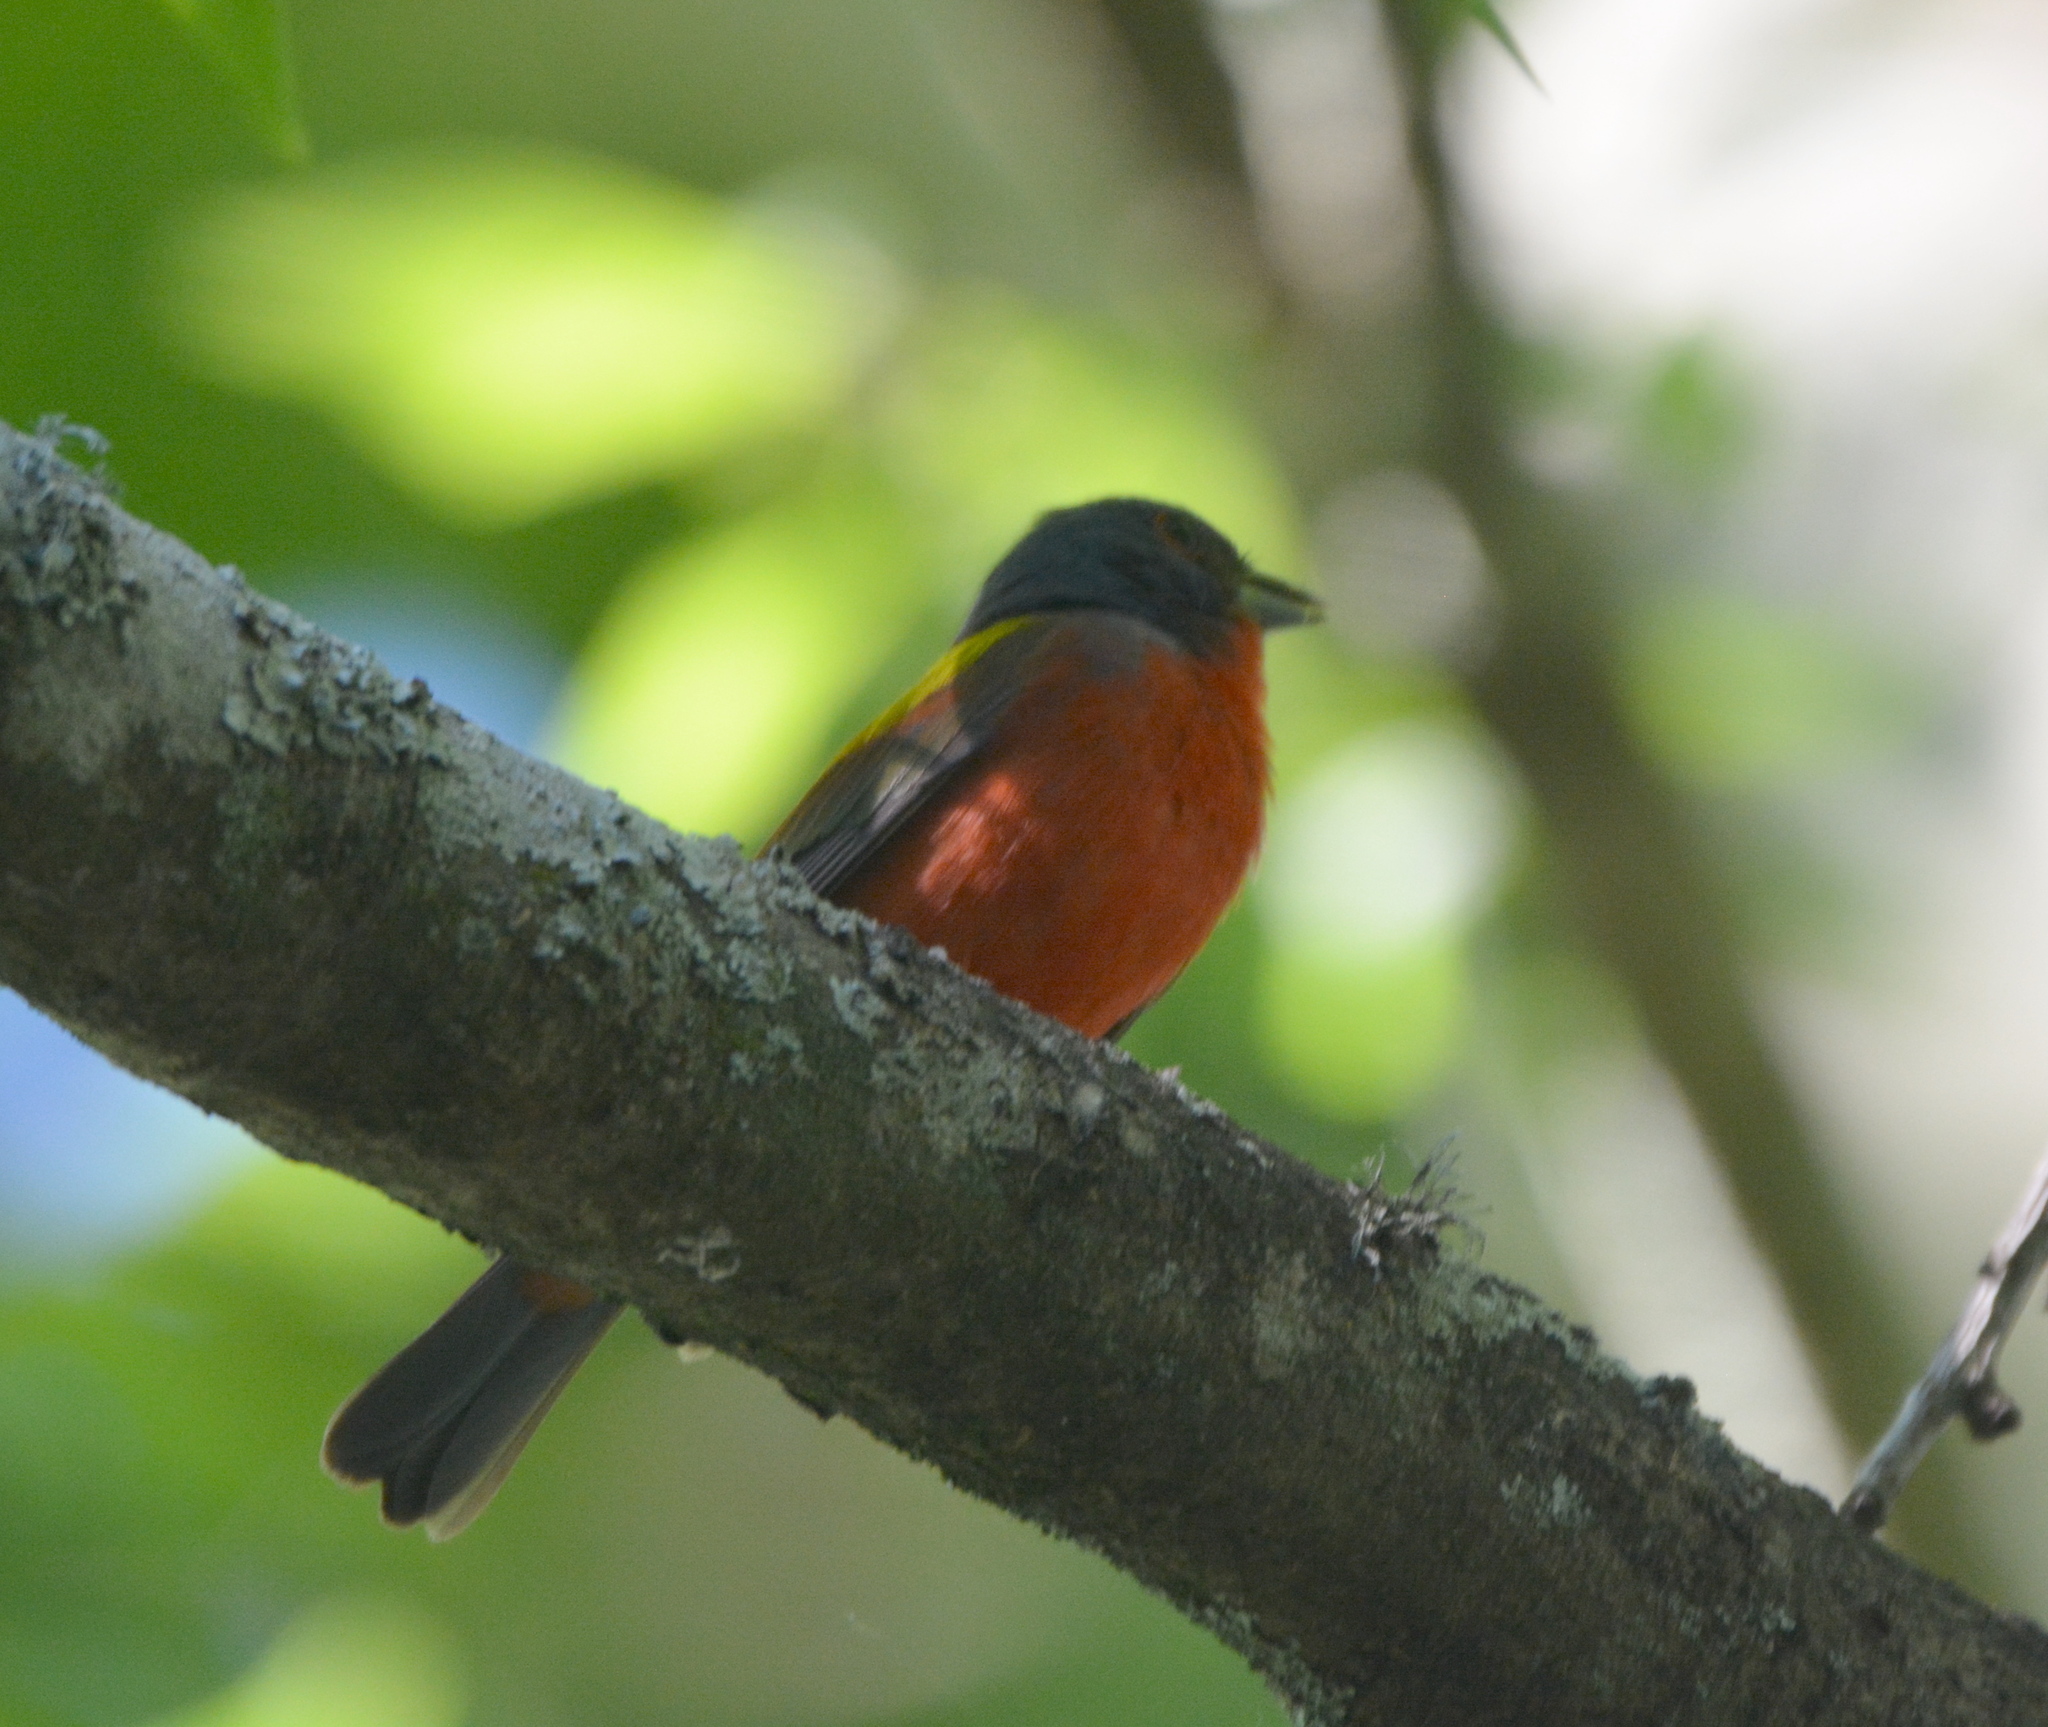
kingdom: Animalia
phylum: Chordata
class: Aves
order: Passeriformes
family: Cardinalidae
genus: Passerina
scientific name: Passerina ciris
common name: Painted bunting
